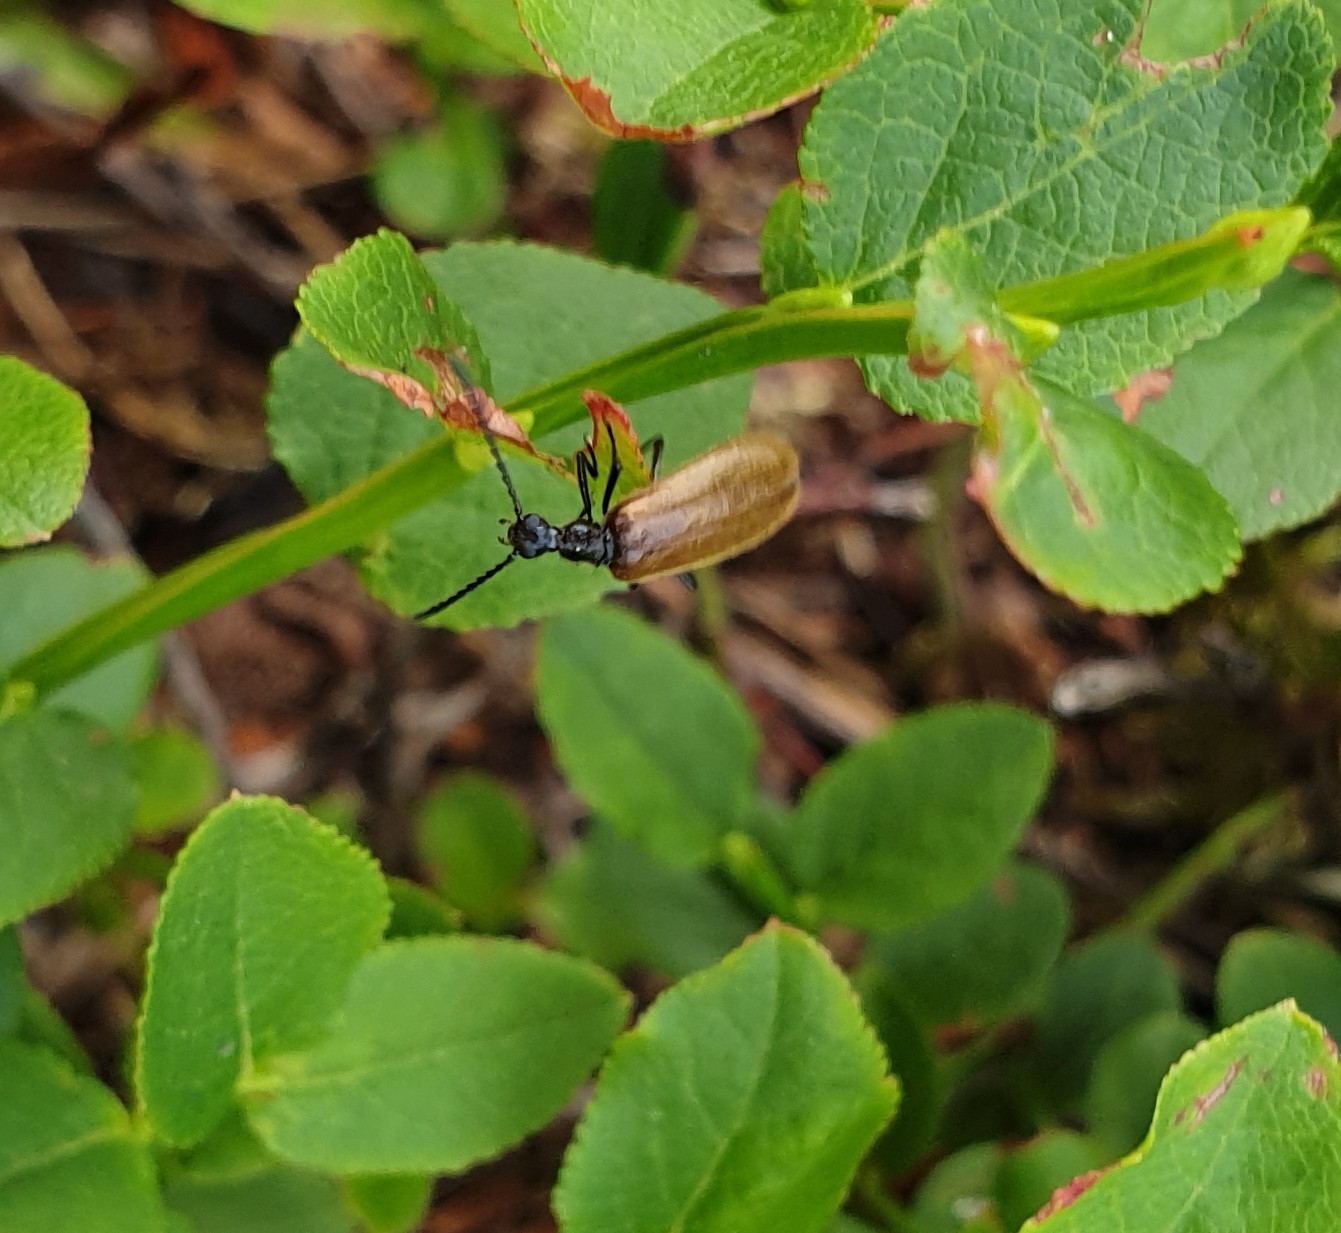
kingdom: Animalia
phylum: Arthropoda
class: Insecta
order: Coleoptera
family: Tenebrionidae
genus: Lagria
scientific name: Lagria hirta
